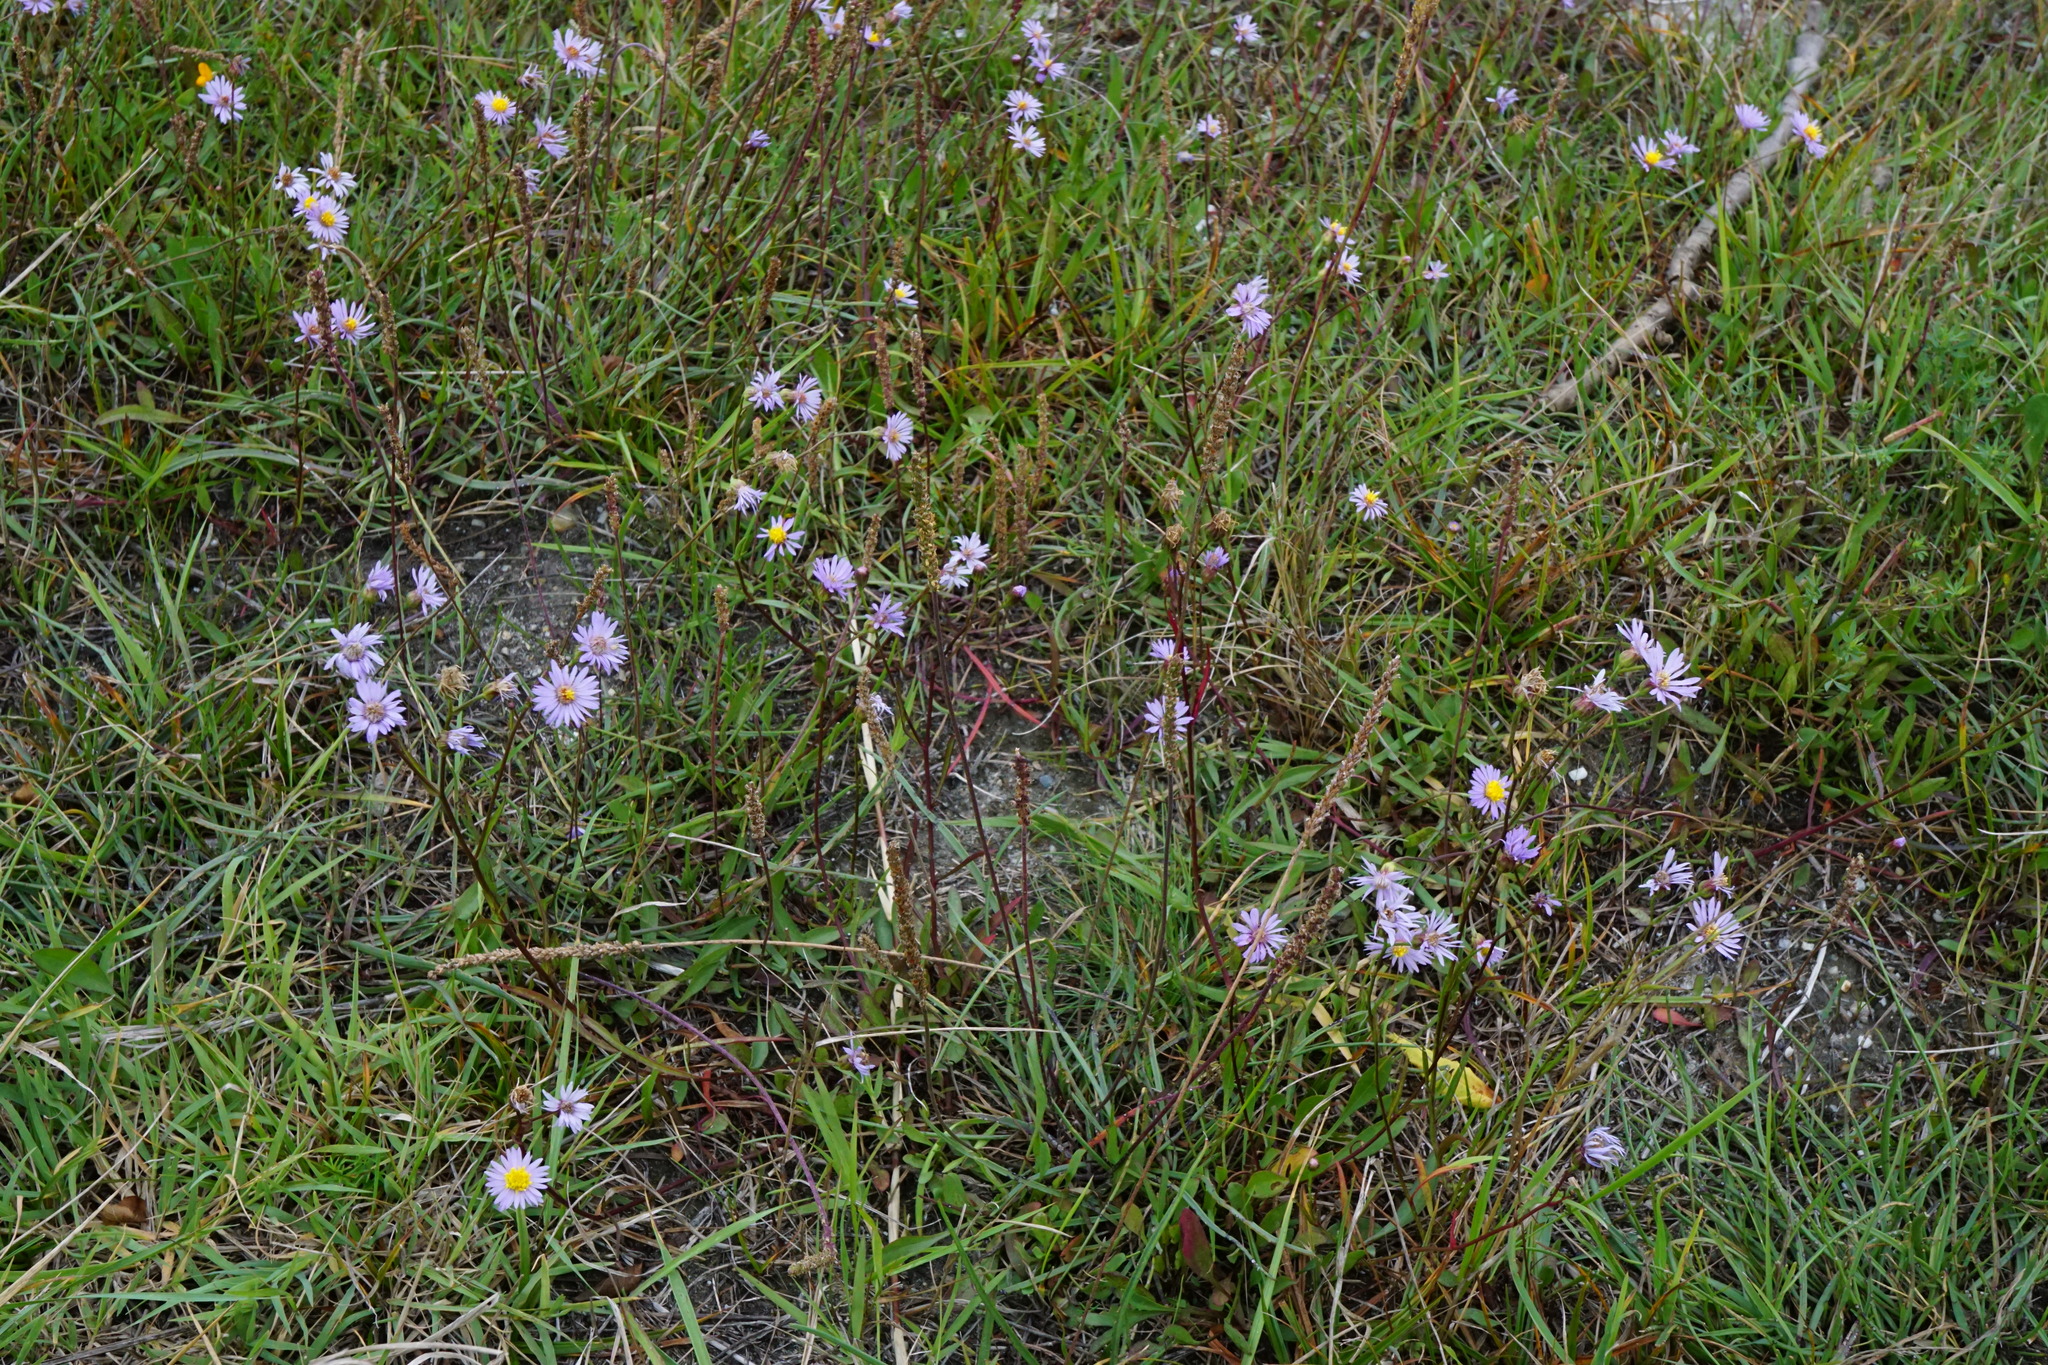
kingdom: Plantae
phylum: Tracheophyta
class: Magnoliopsida
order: Asterales
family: Asteraceae
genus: Tripolium
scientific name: Tripolium pannonicum
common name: Sea aster
